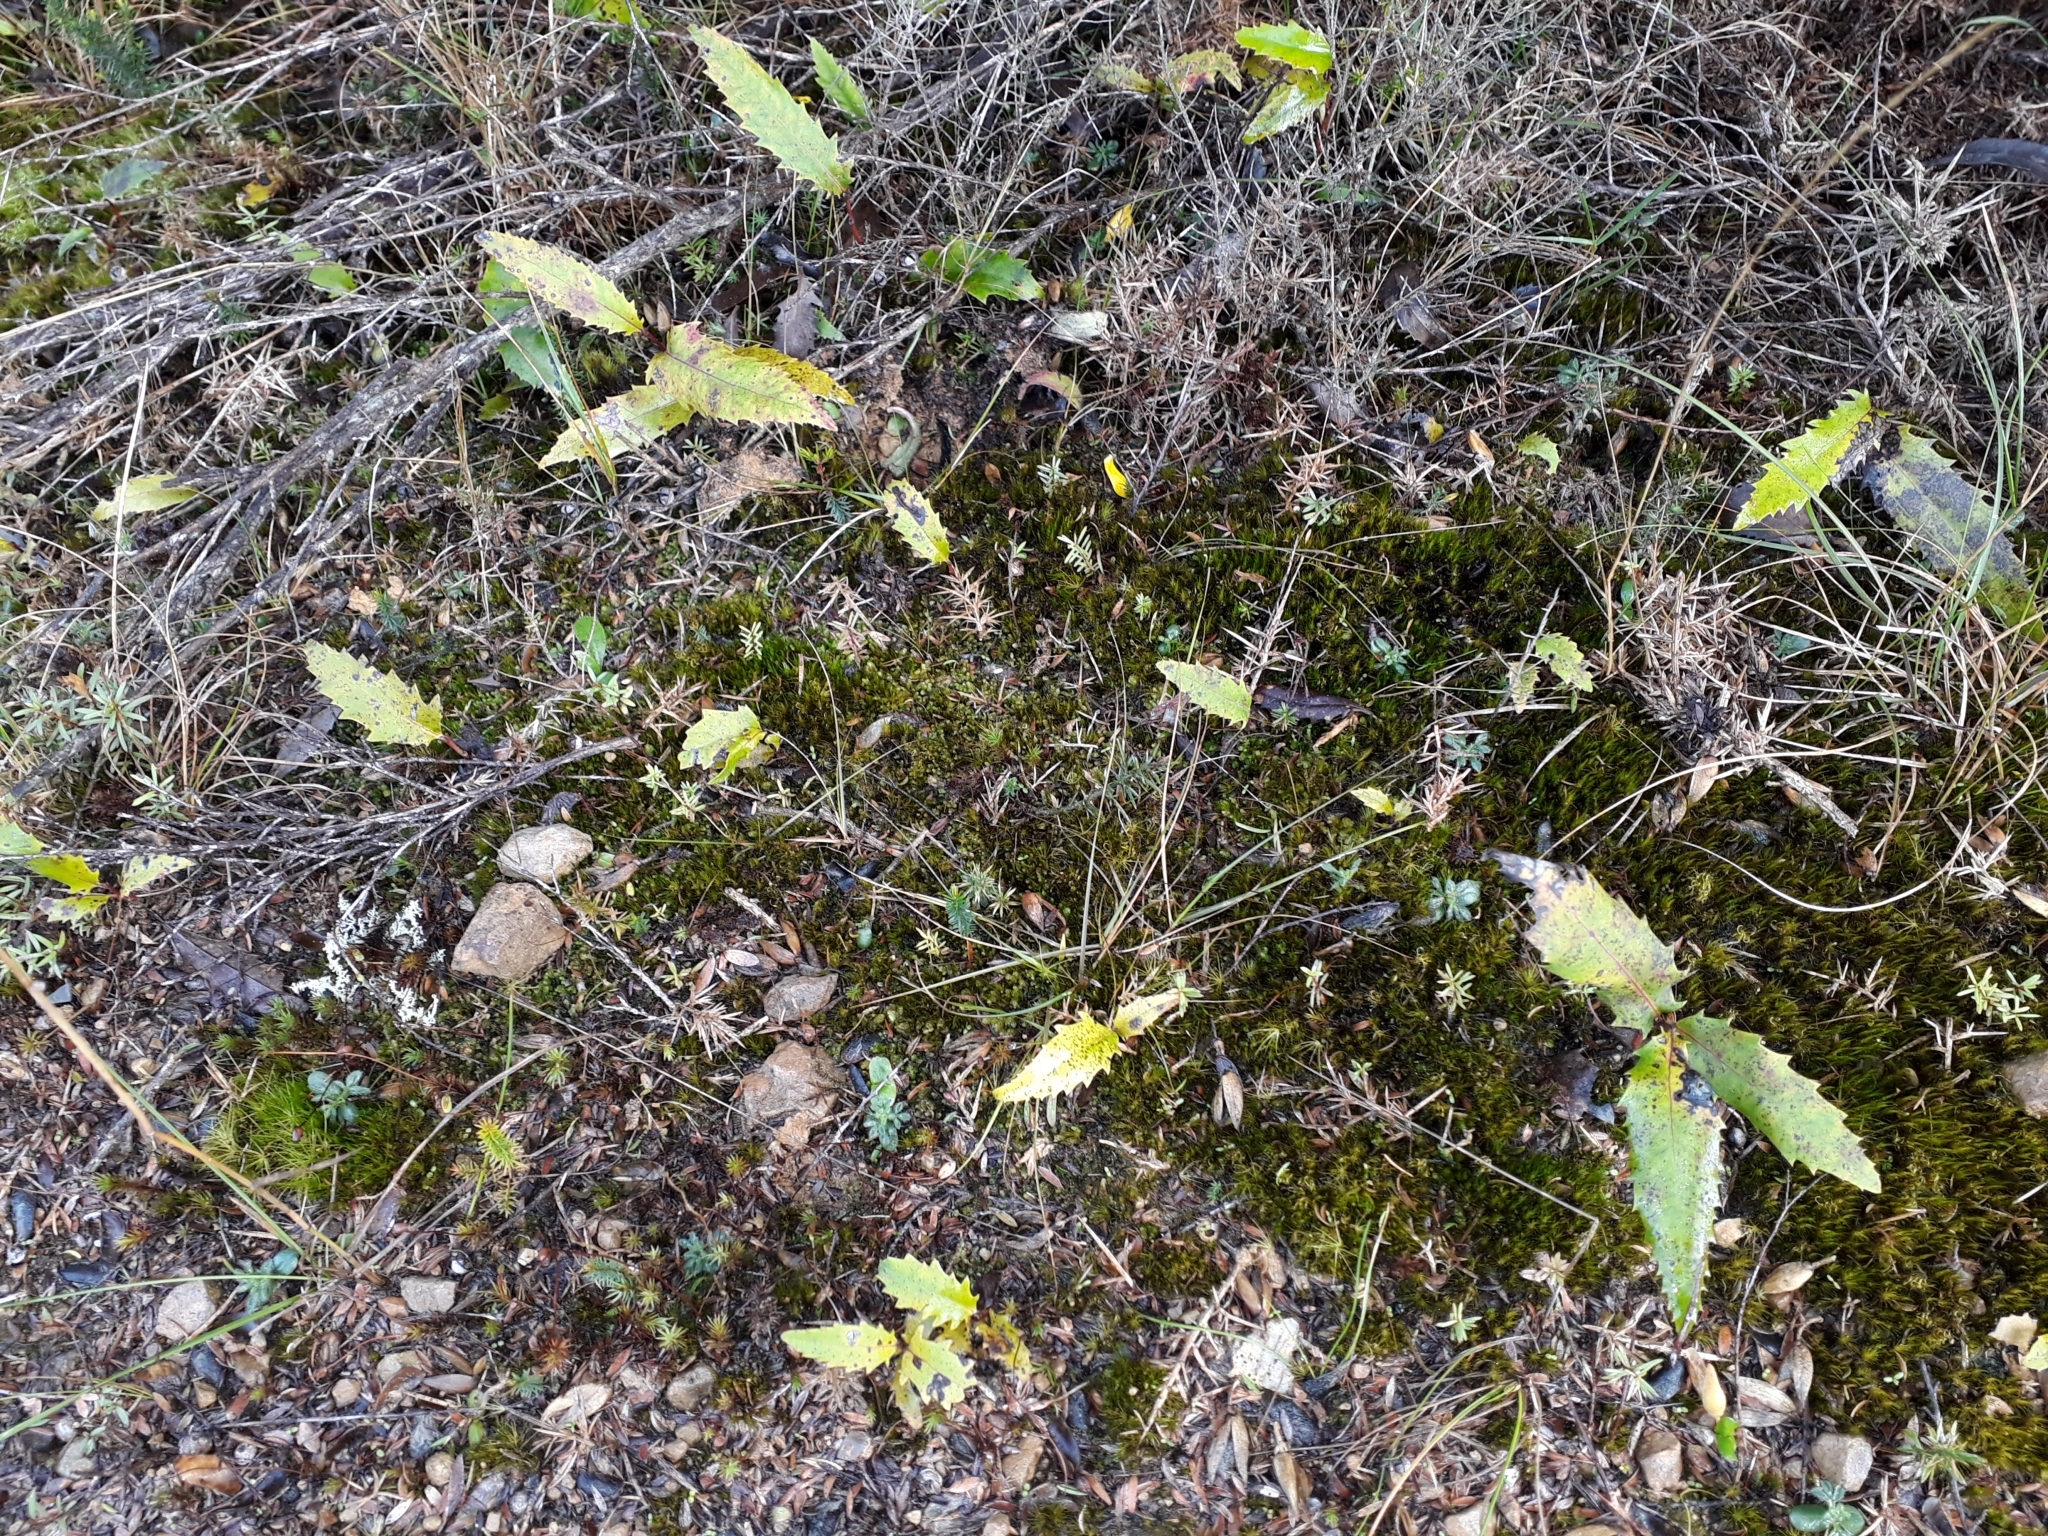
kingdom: Plantae
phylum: Tracheophyta
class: Magnoliopsida
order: Proteales
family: Proteaceae
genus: Lomatia
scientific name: Lomatia fraseri
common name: Forest lomatia
